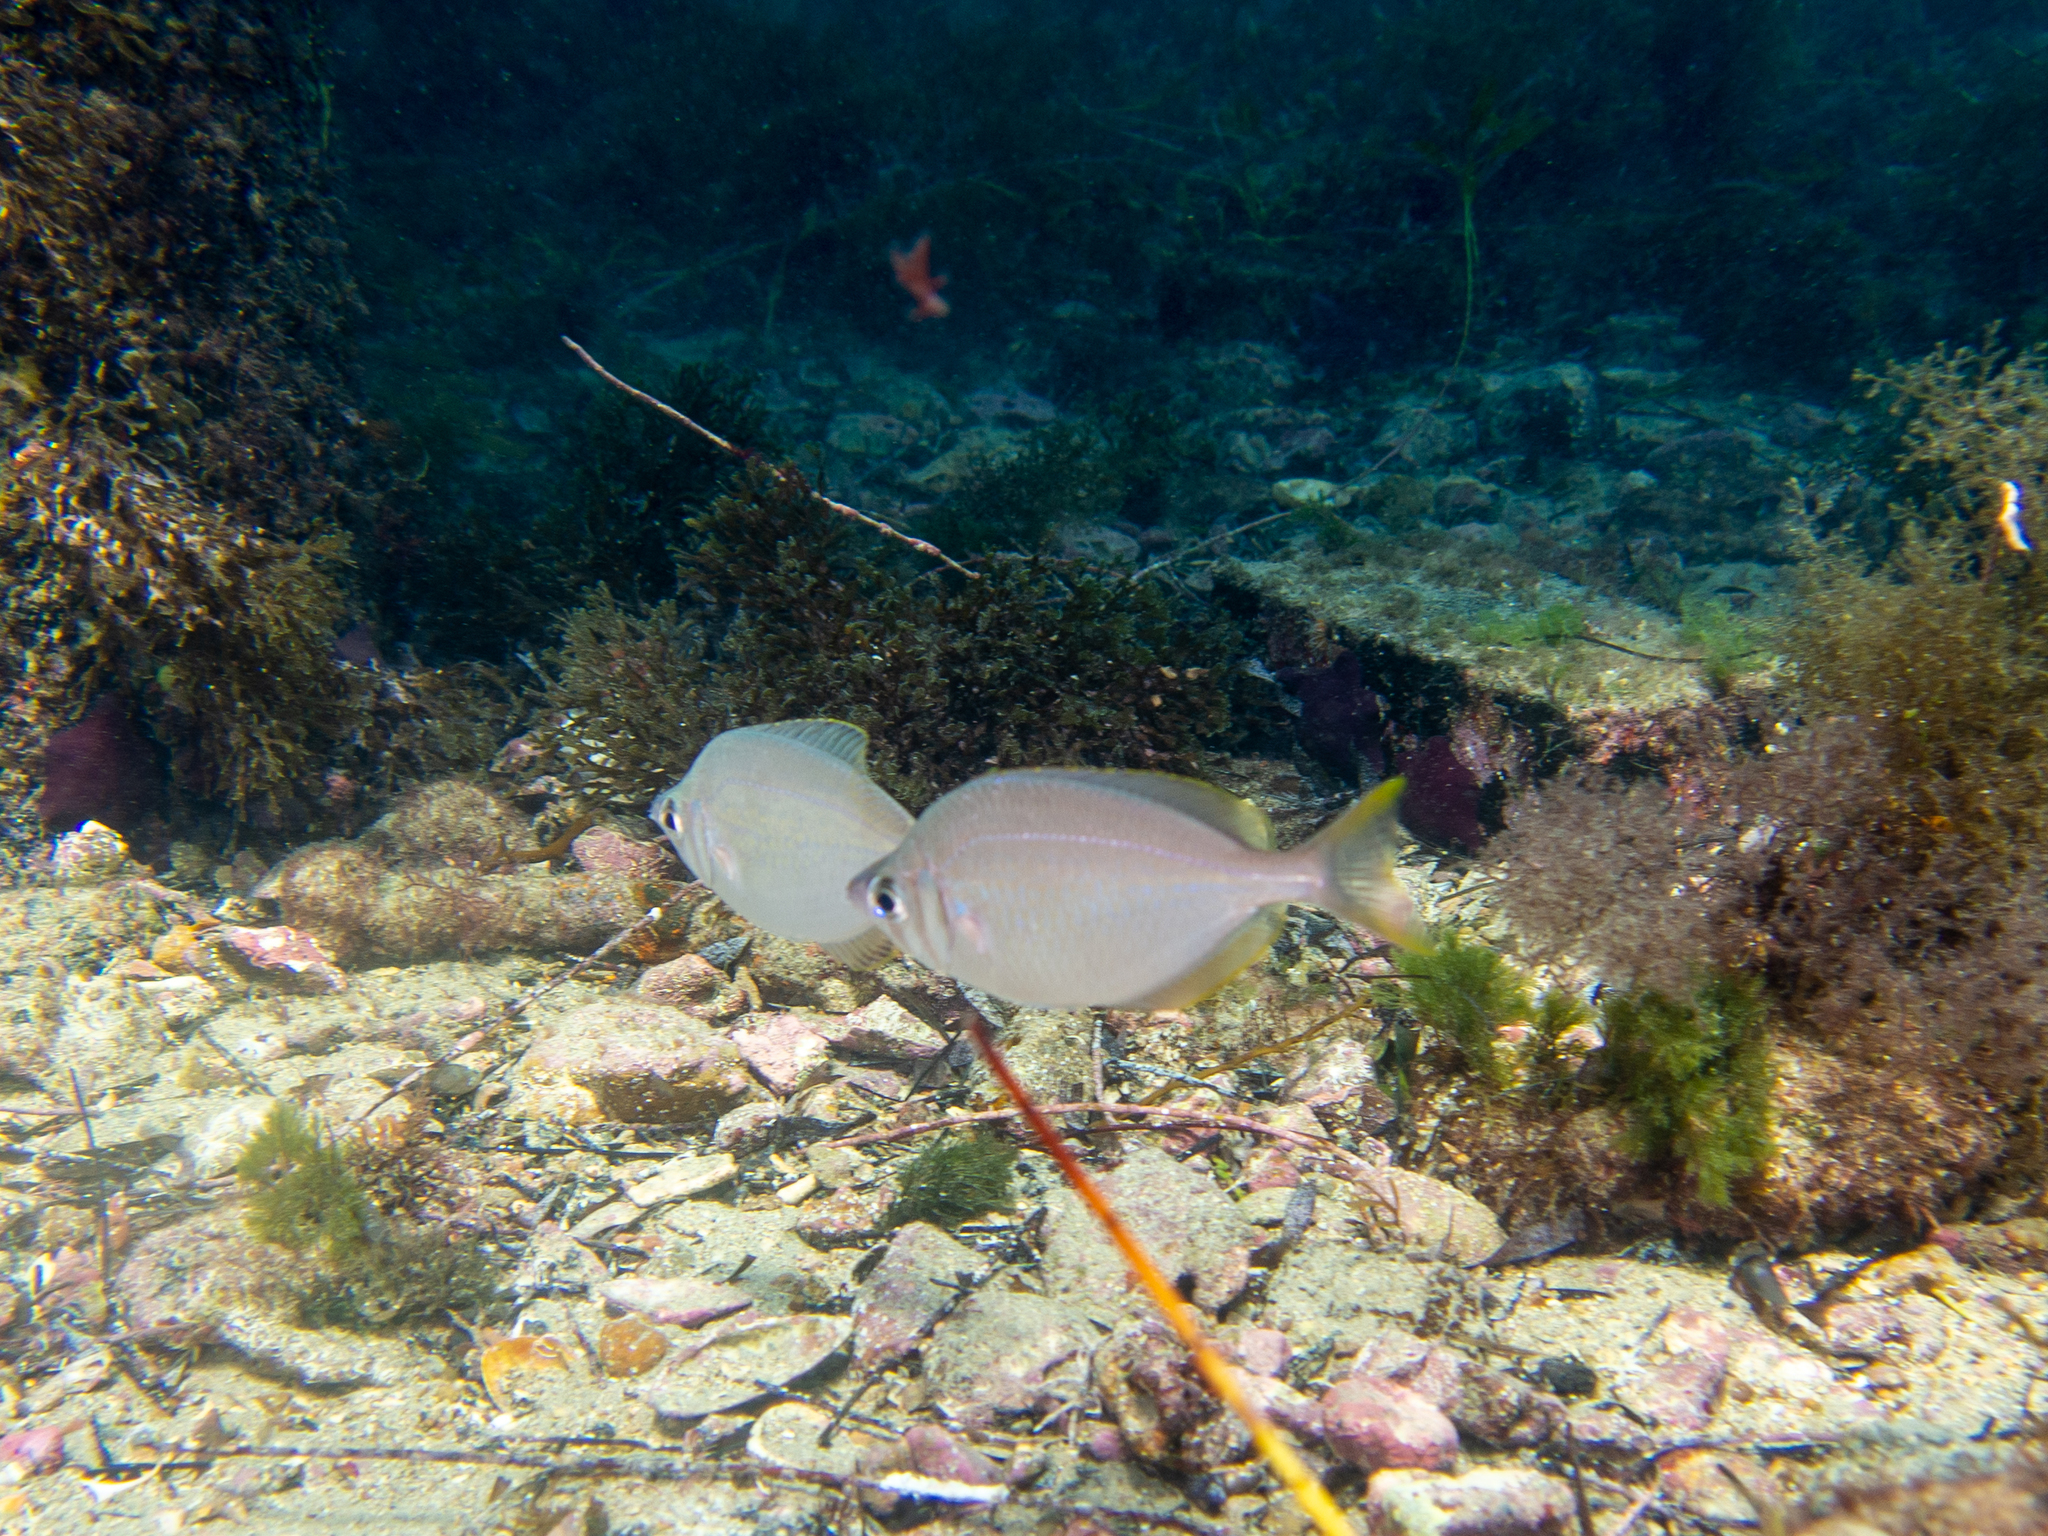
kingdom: Animalia
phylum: Chordata
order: Perciformes
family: Gerreidae
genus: Parequula
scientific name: Parequula melbournensis
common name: Silverbelly
